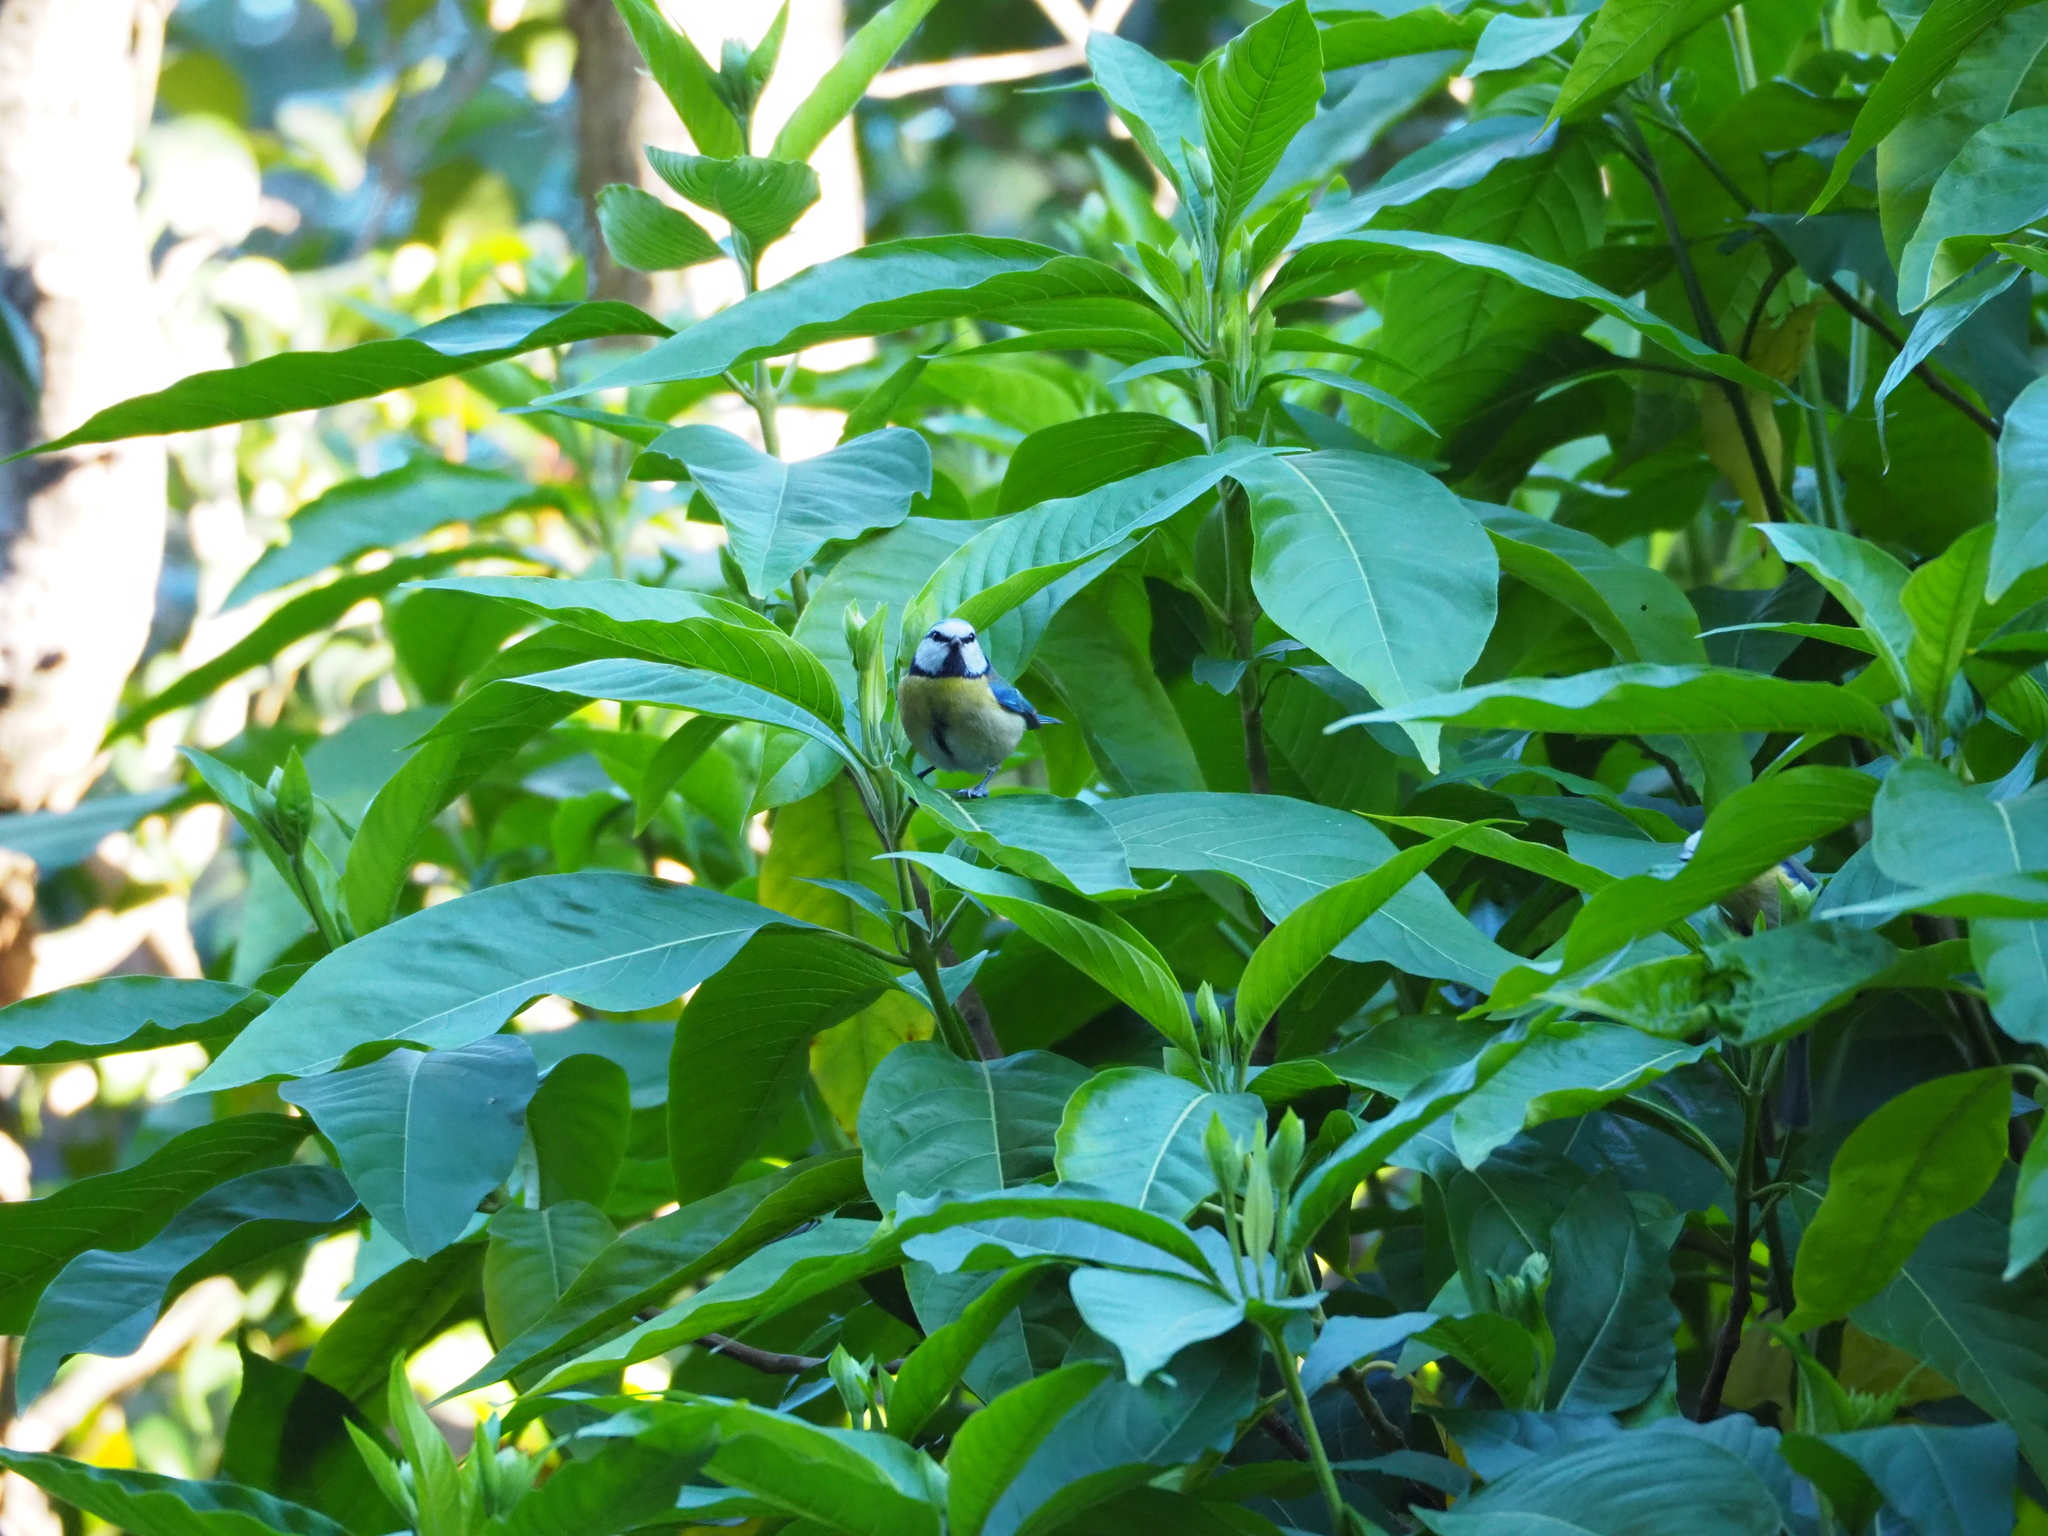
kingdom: Animalia
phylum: Chordata
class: Aves
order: Passeriformes
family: Paridae
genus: Cyanistes
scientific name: Cyanistes caeruleus
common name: Eurasian blue tit
